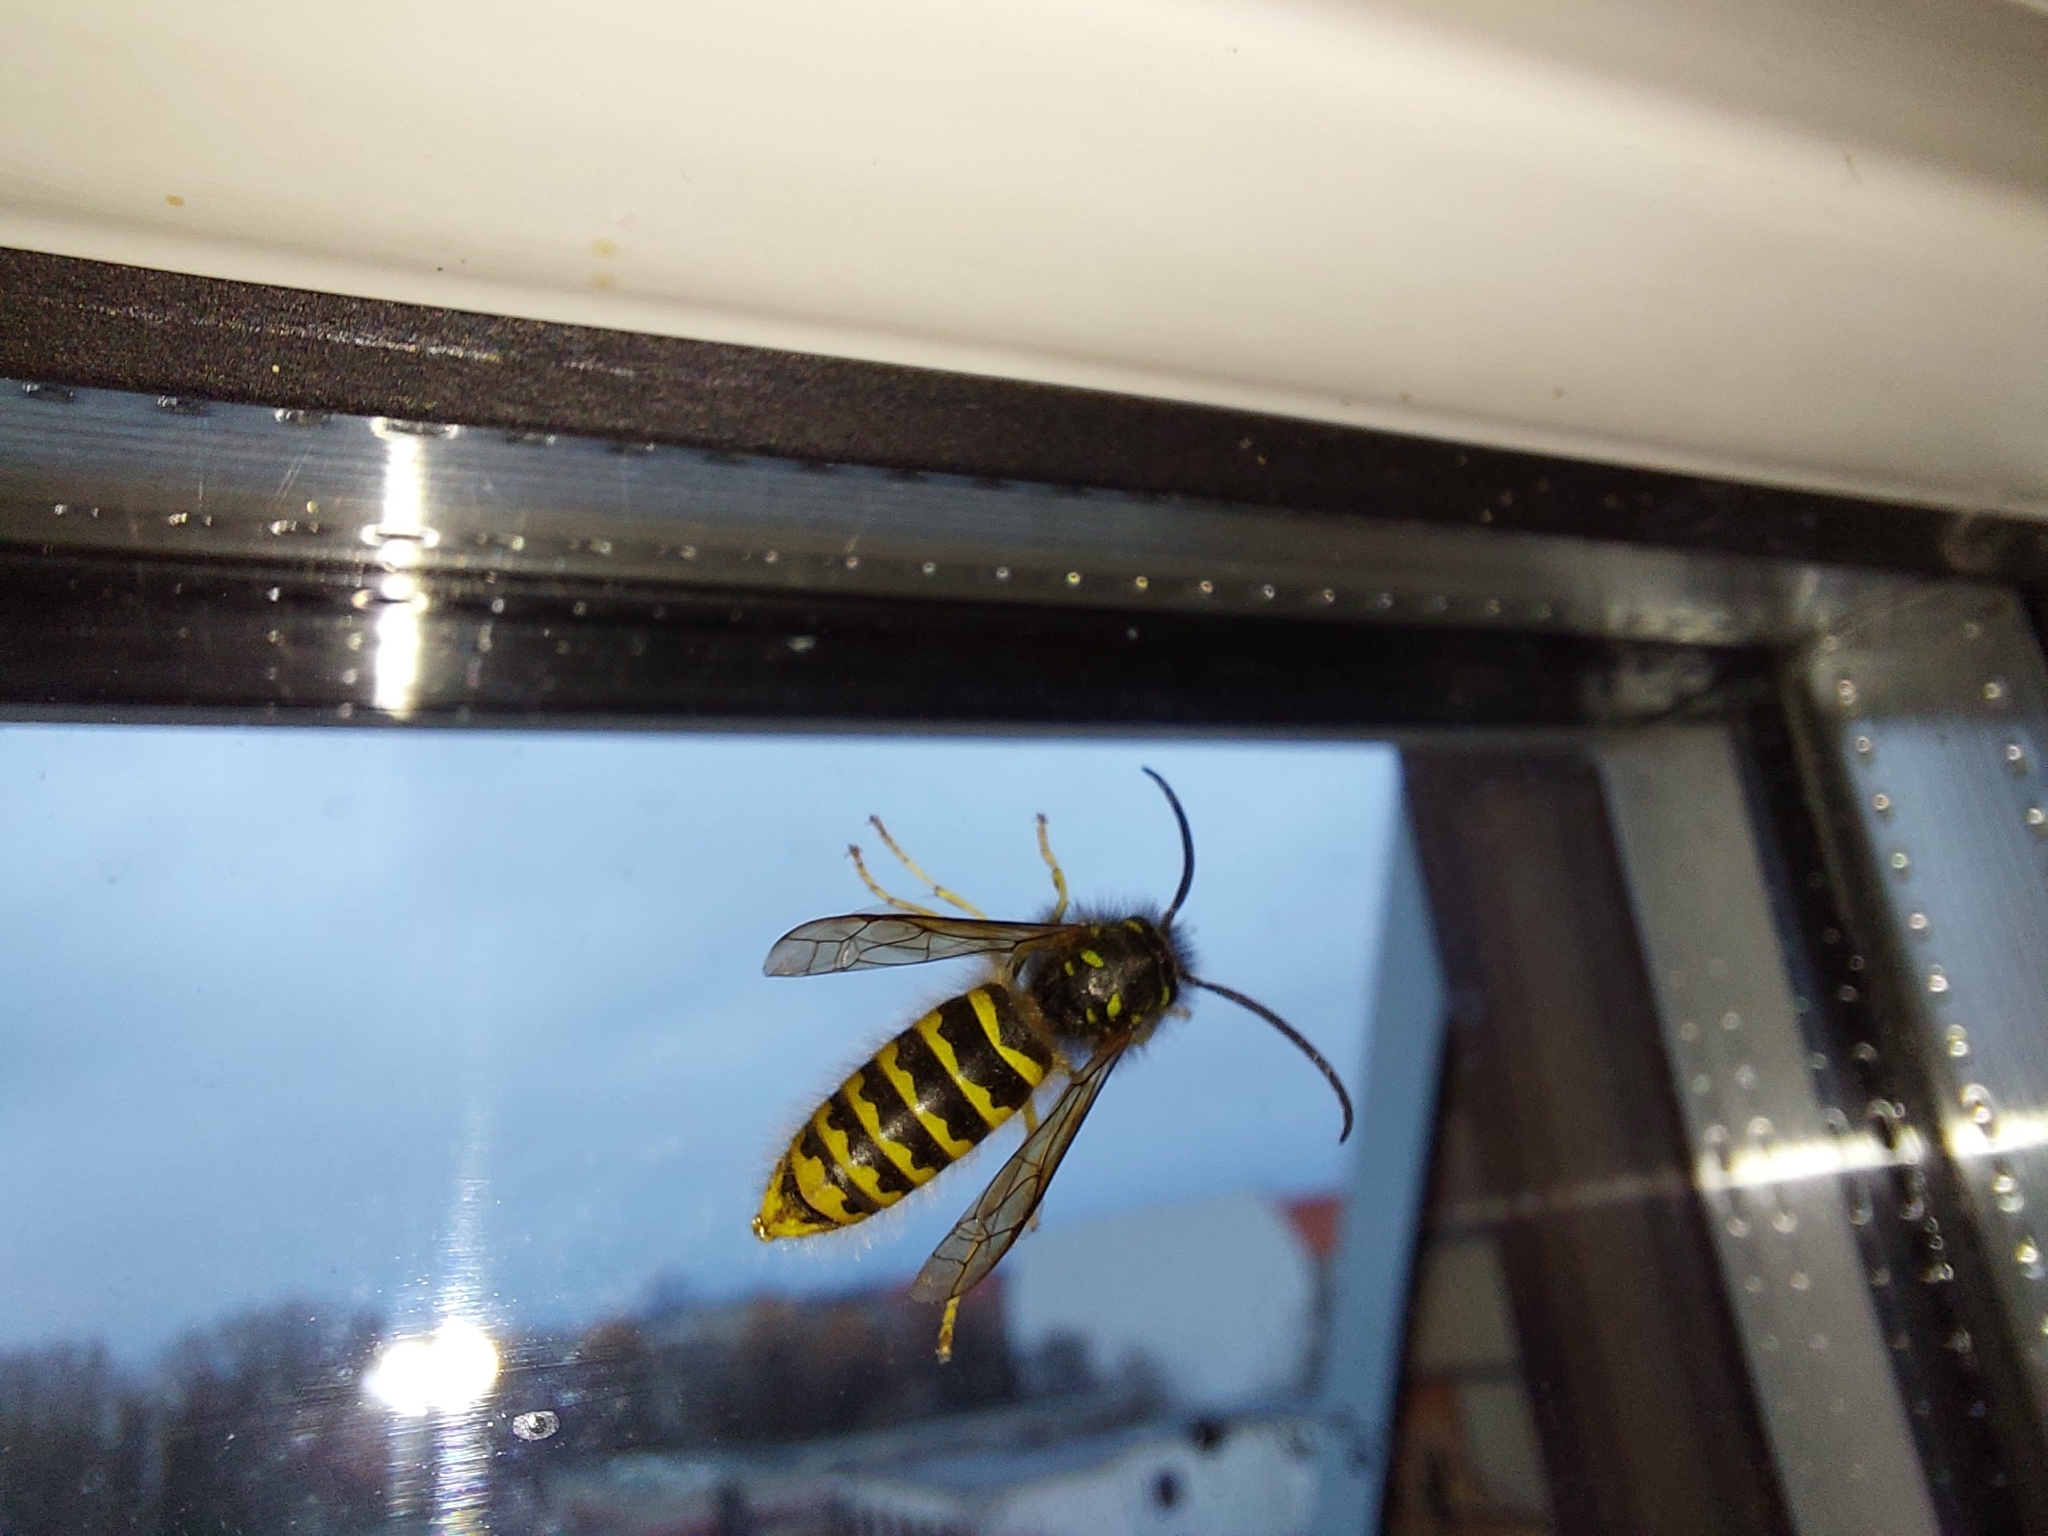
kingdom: Animalia
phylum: Arthropoda
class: Insecta
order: Hymenoptera
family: Vespidae
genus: Vespula
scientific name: Vespula vulgaris
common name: Common wasp
